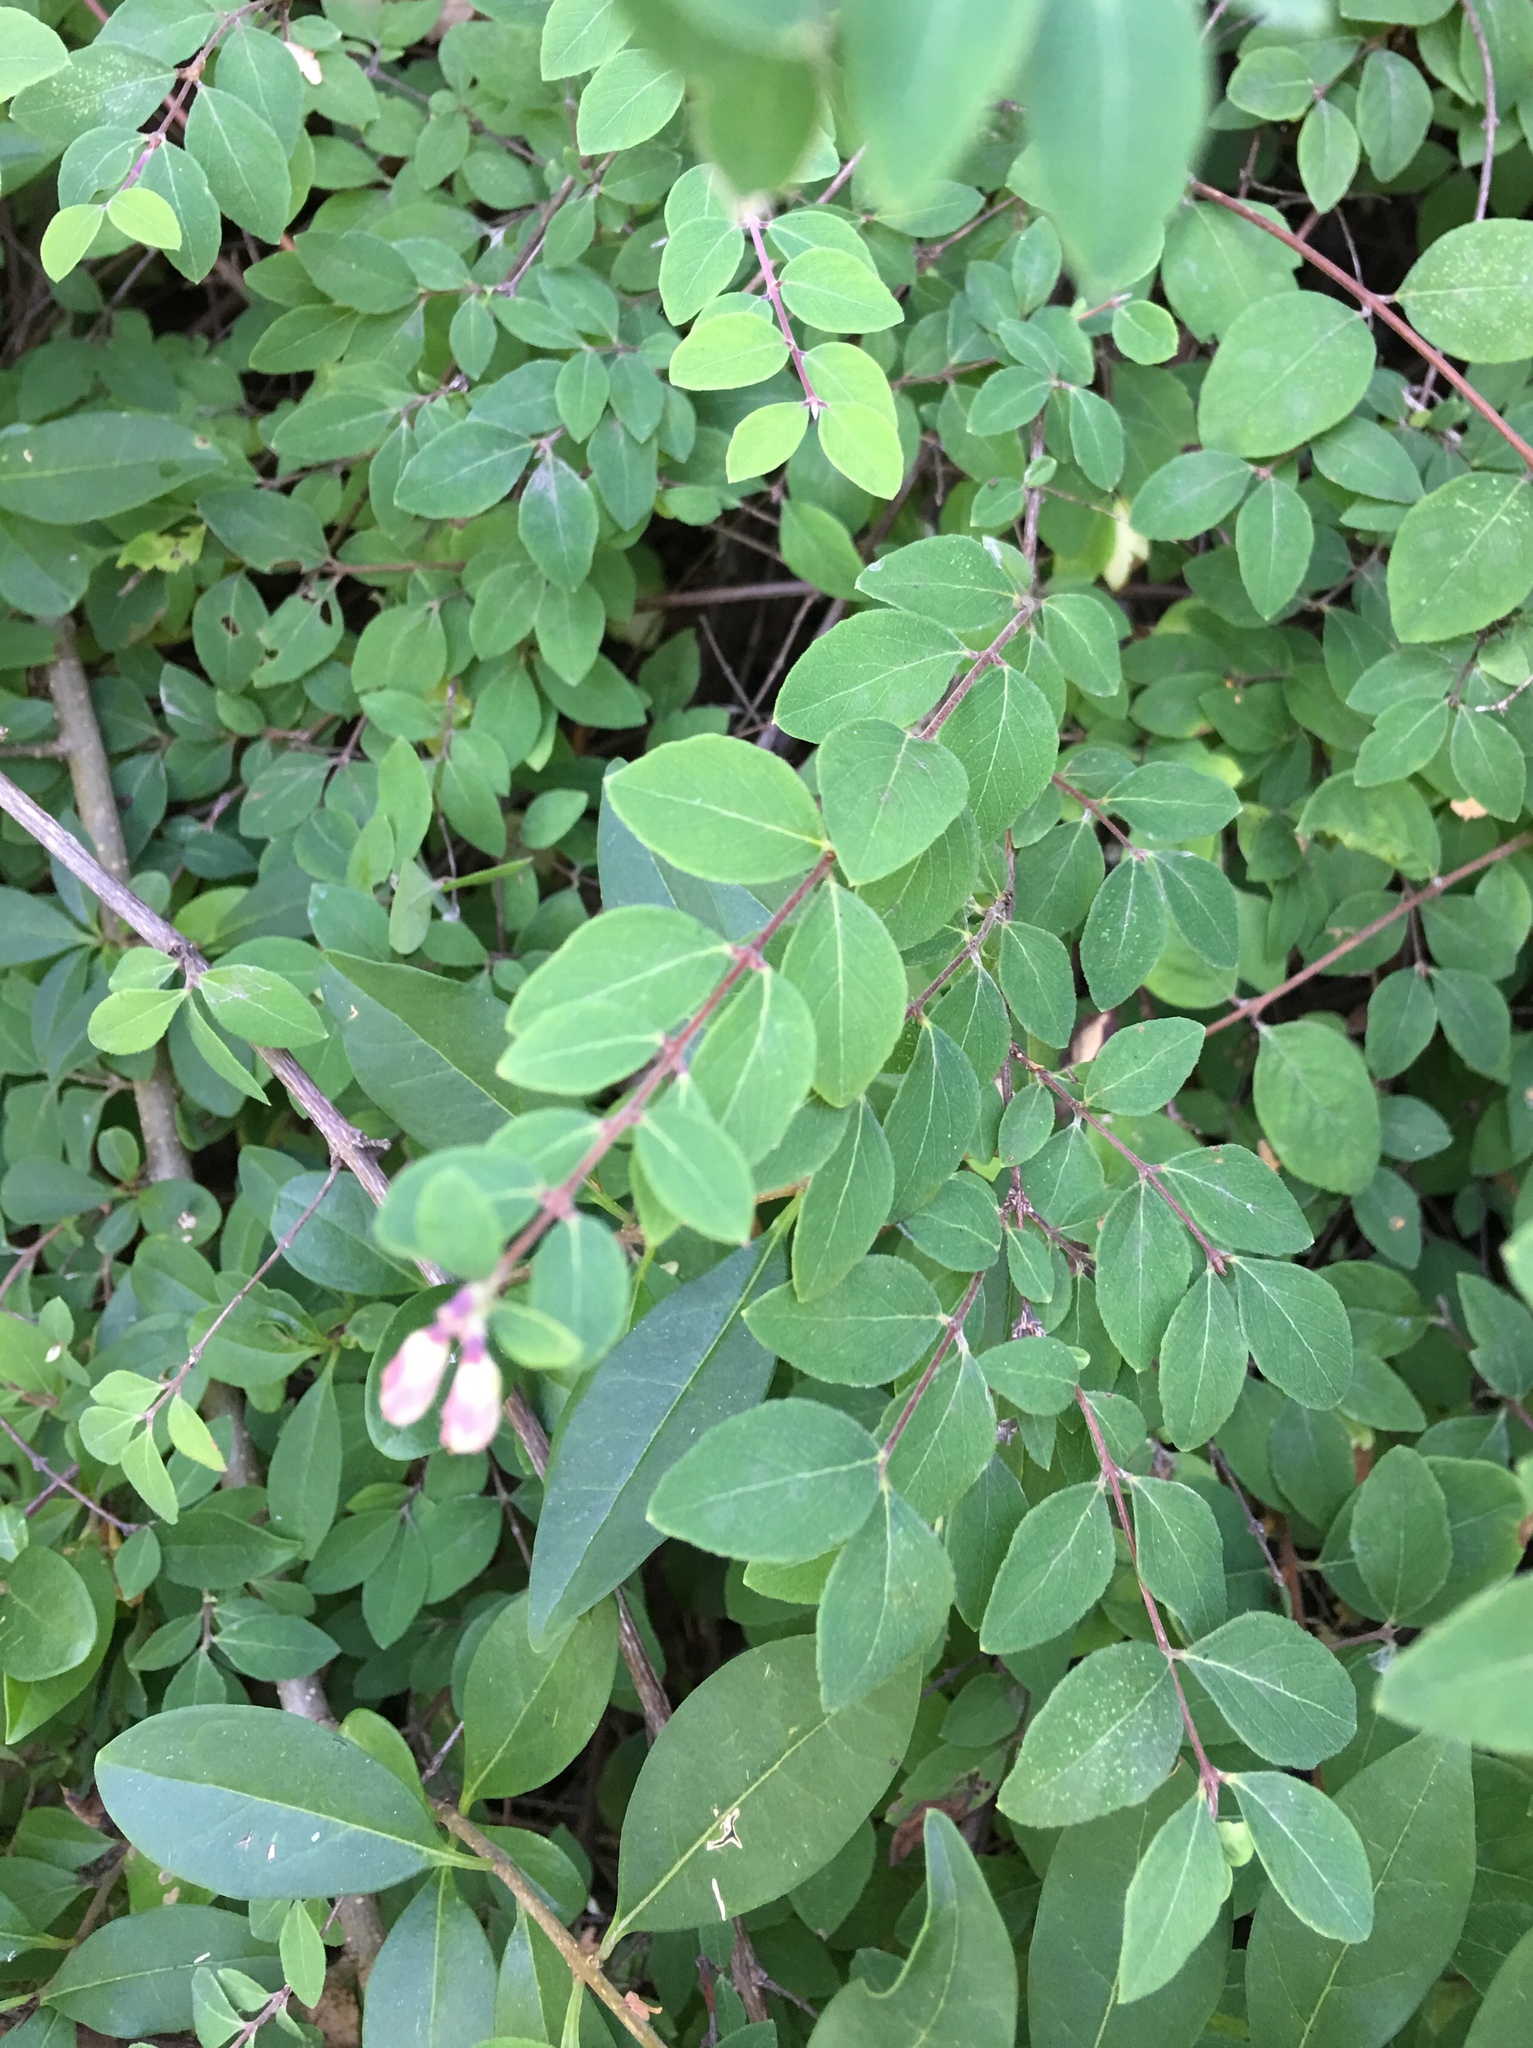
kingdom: Plantae
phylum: Tracheophyta
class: Magnoliopsida
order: Dipsacales
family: Caprifoliaceae
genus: Symphoricarpos
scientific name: Symphoricarpos albus
